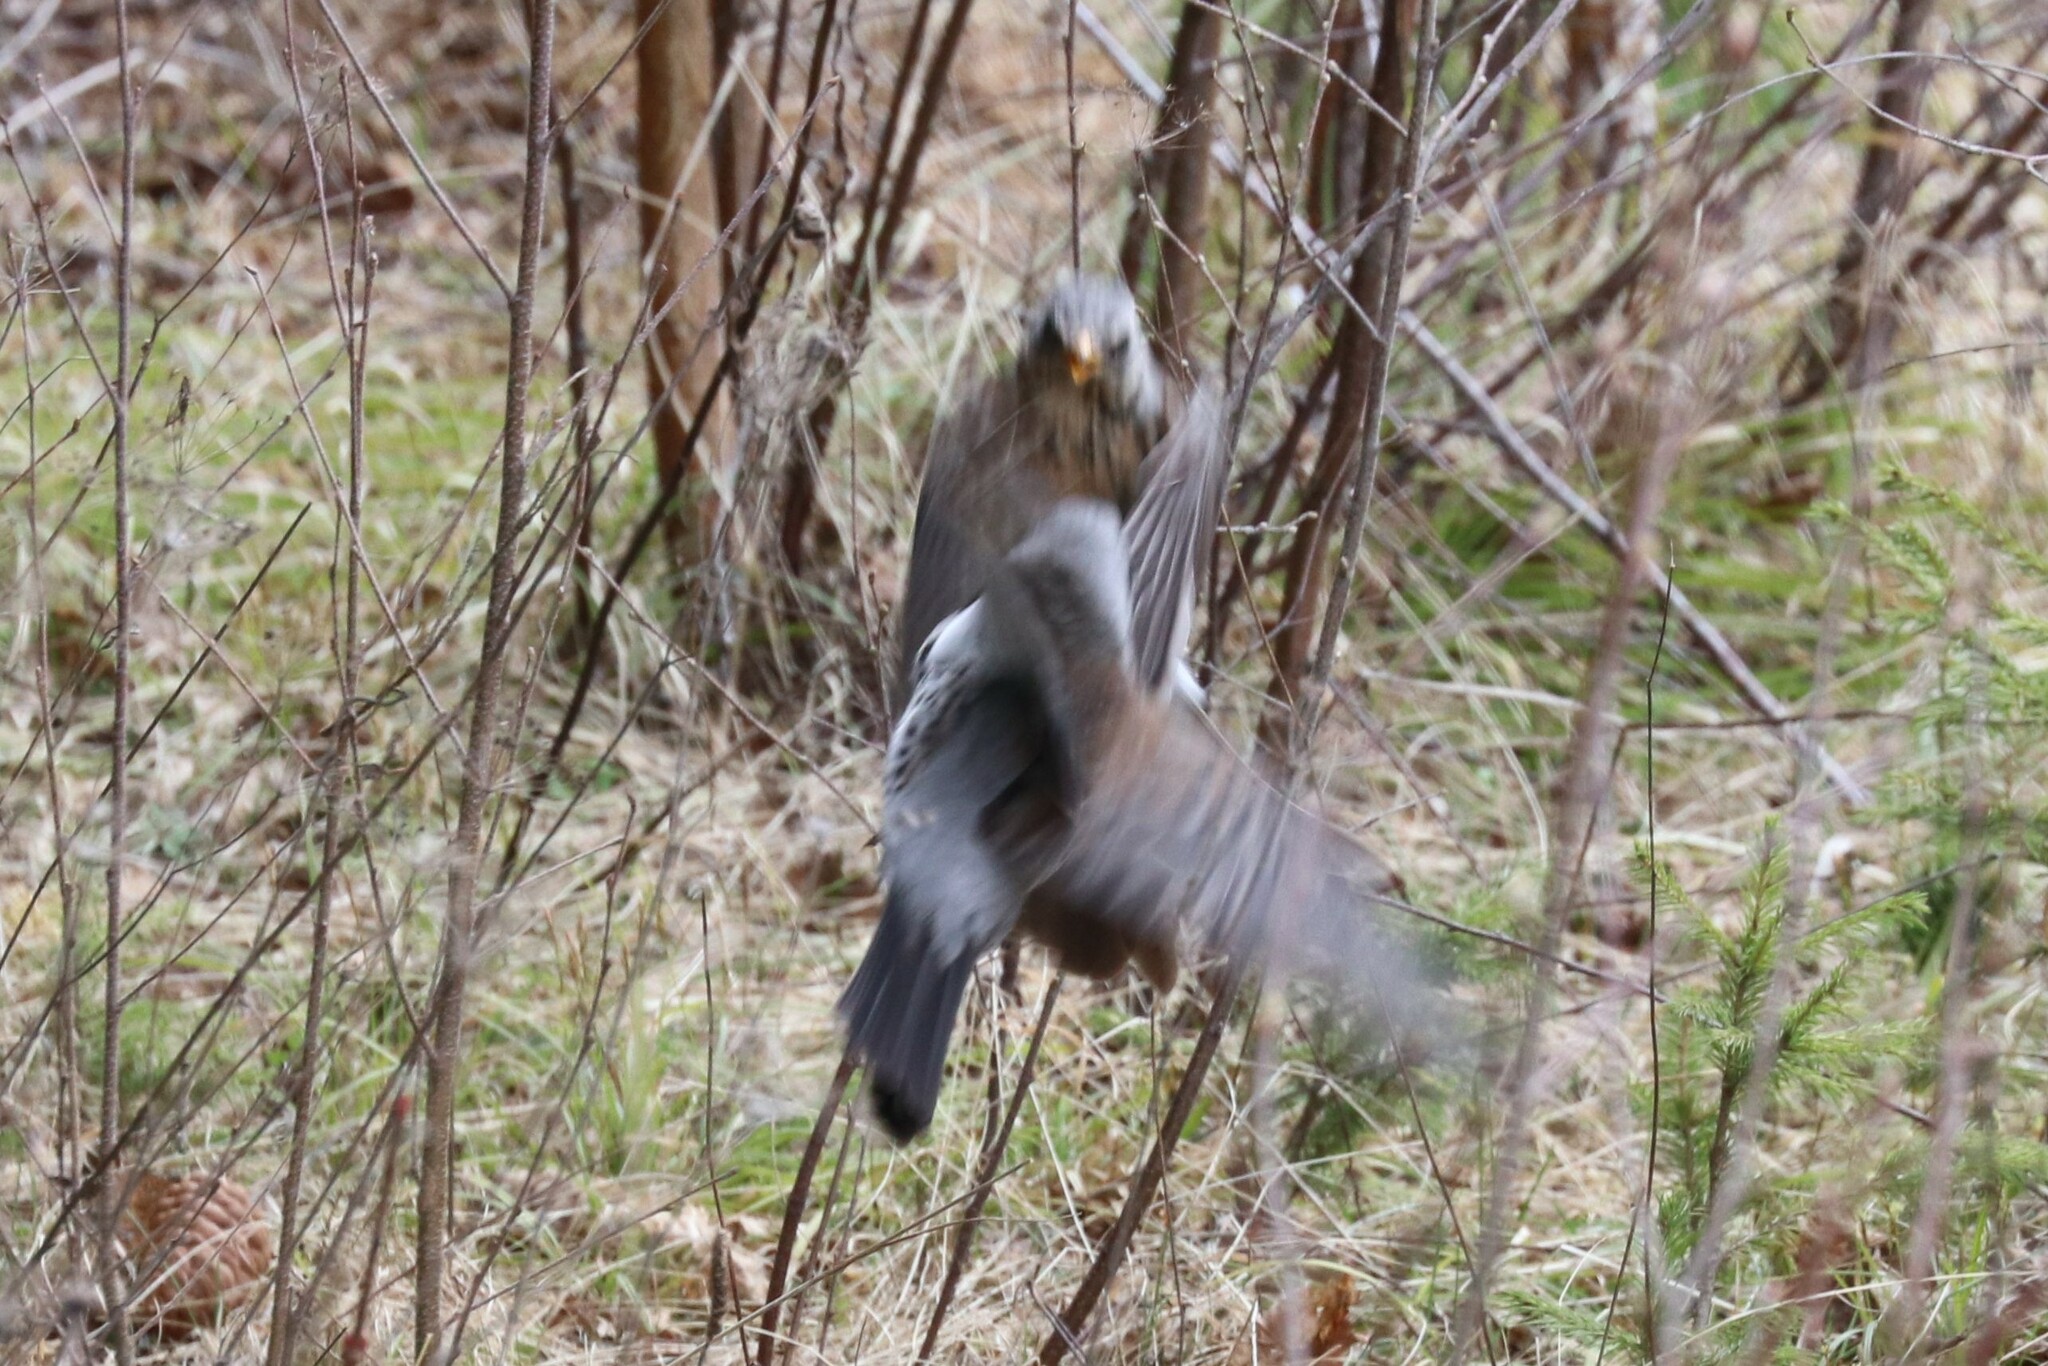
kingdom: Animalia
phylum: Chordata
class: Aves
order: Passeriformes
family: Turdidae
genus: Turdus
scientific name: Turdus pilaris
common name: Fieldfare
